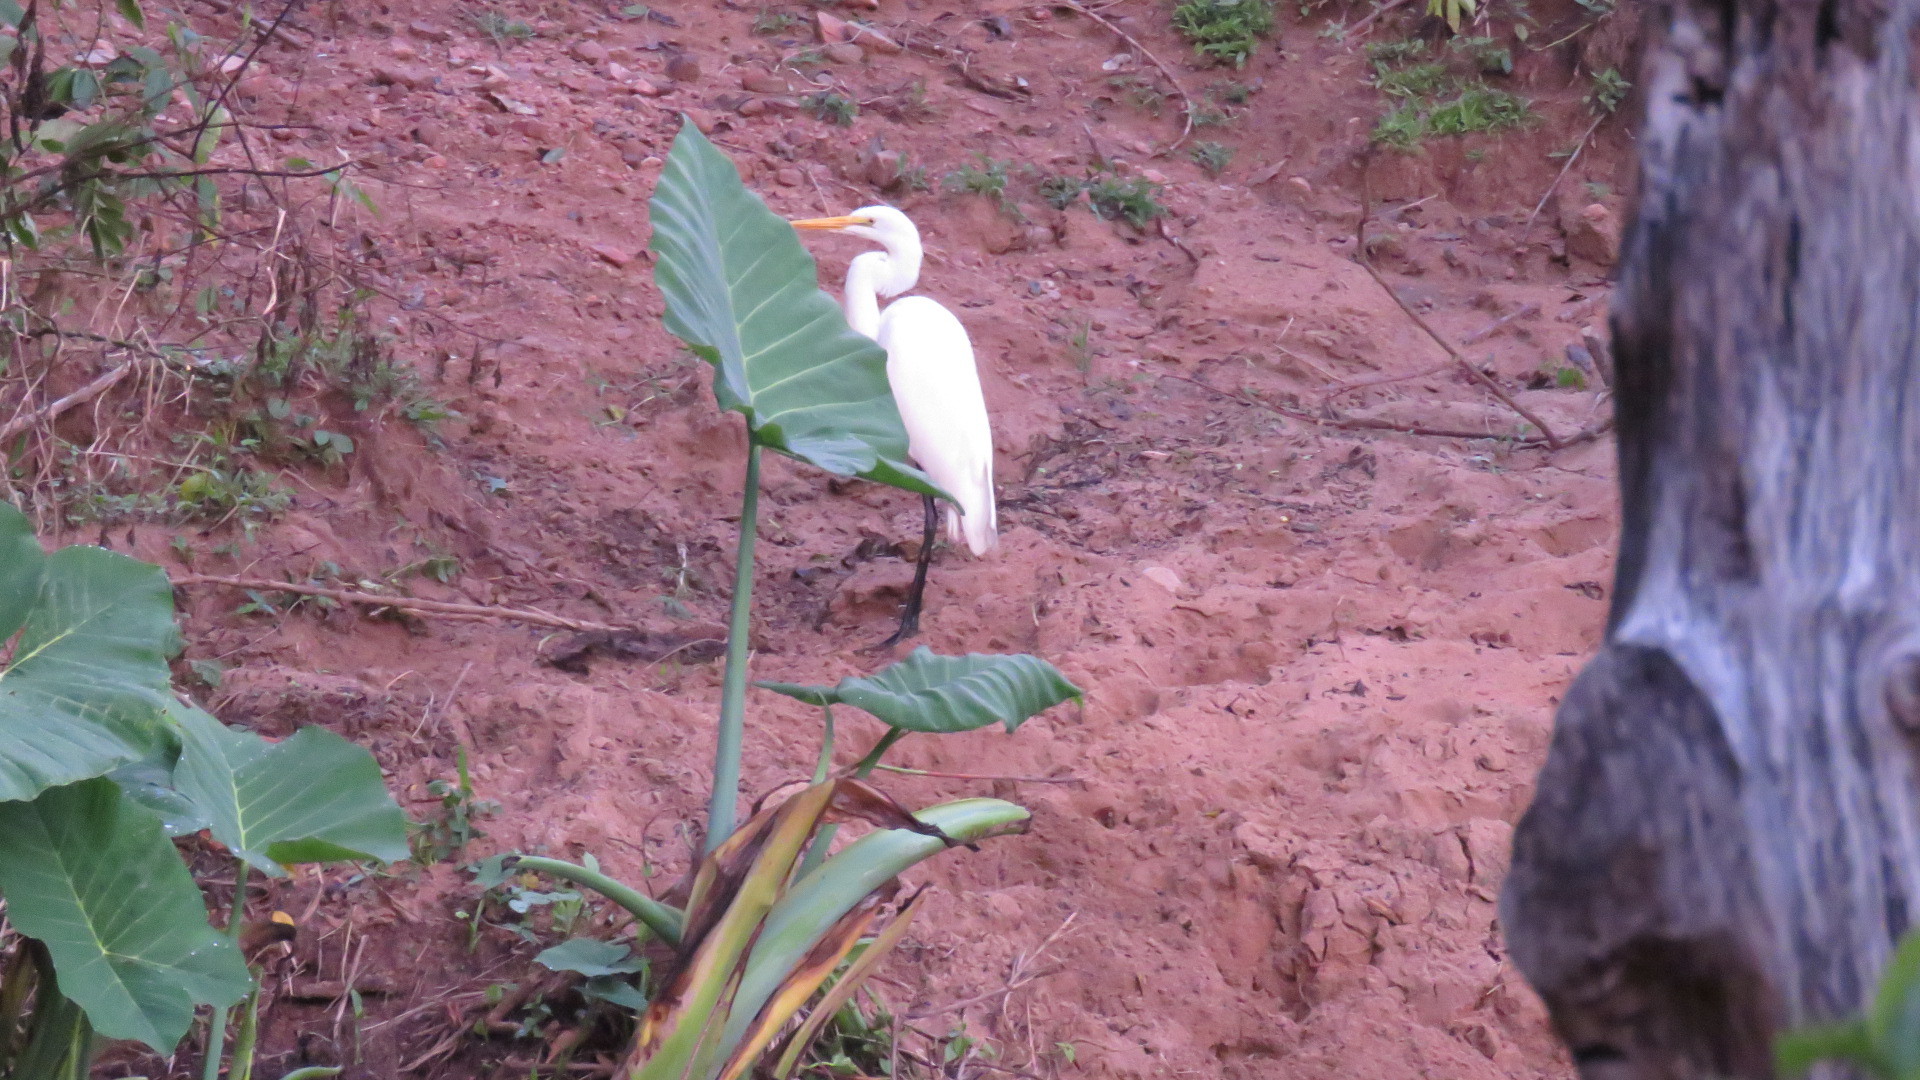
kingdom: Animalia
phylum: Chordata
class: Aves
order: Pelecaniformes
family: Ardeidae
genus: Ardea
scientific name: Ardea alba
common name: Great egret
